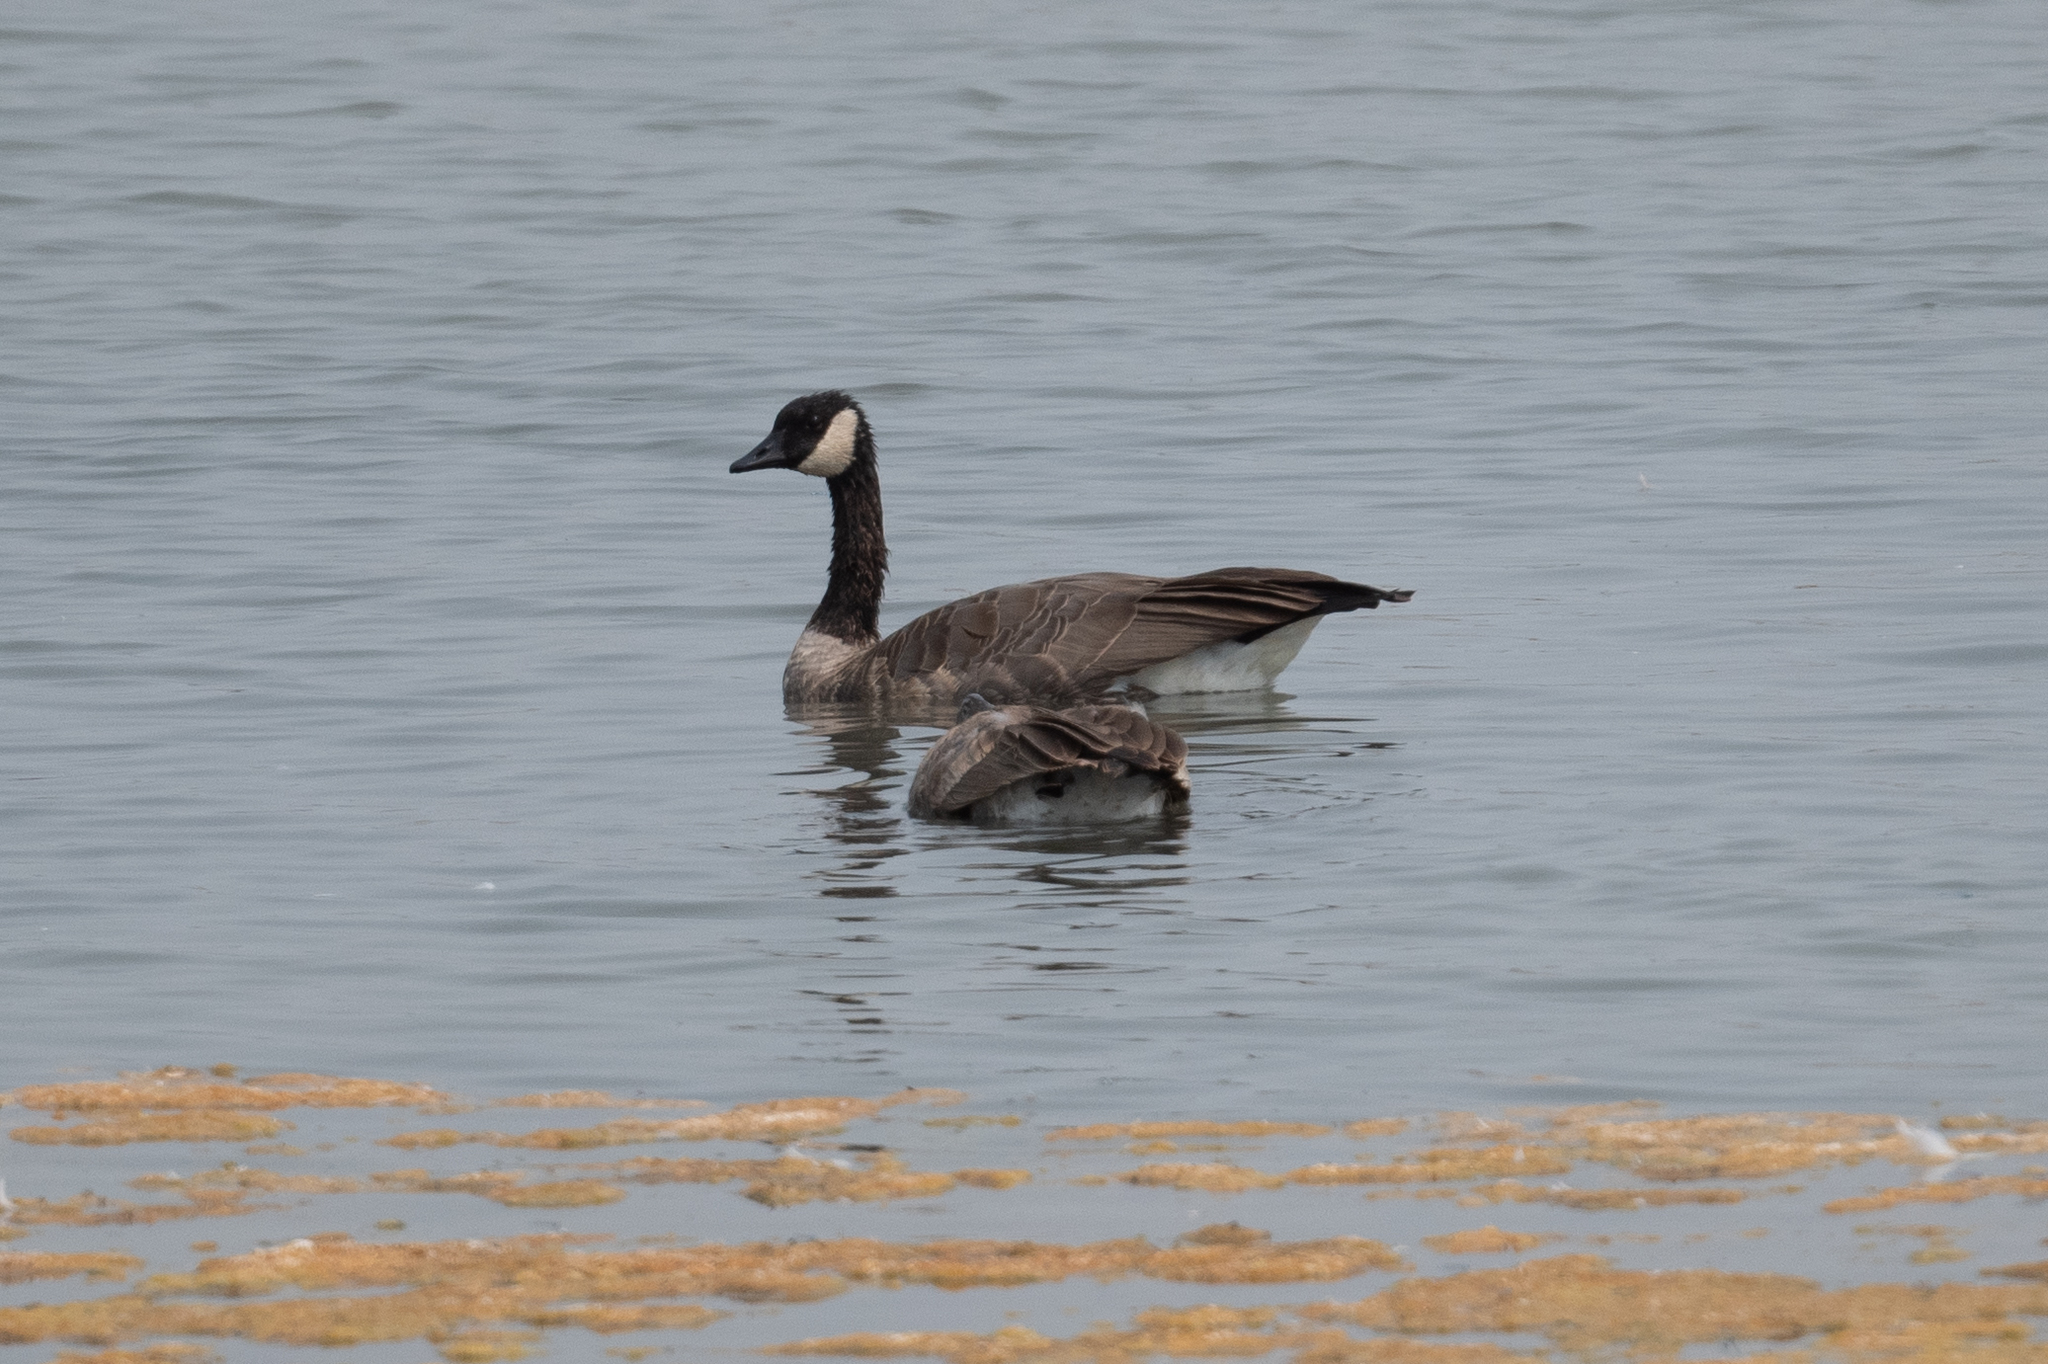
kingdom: Animalia
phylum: Chordata
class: Aves
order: Anseriformes
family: Anatidae
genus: Branta
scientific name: Branta canadensis
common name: Canada goose
